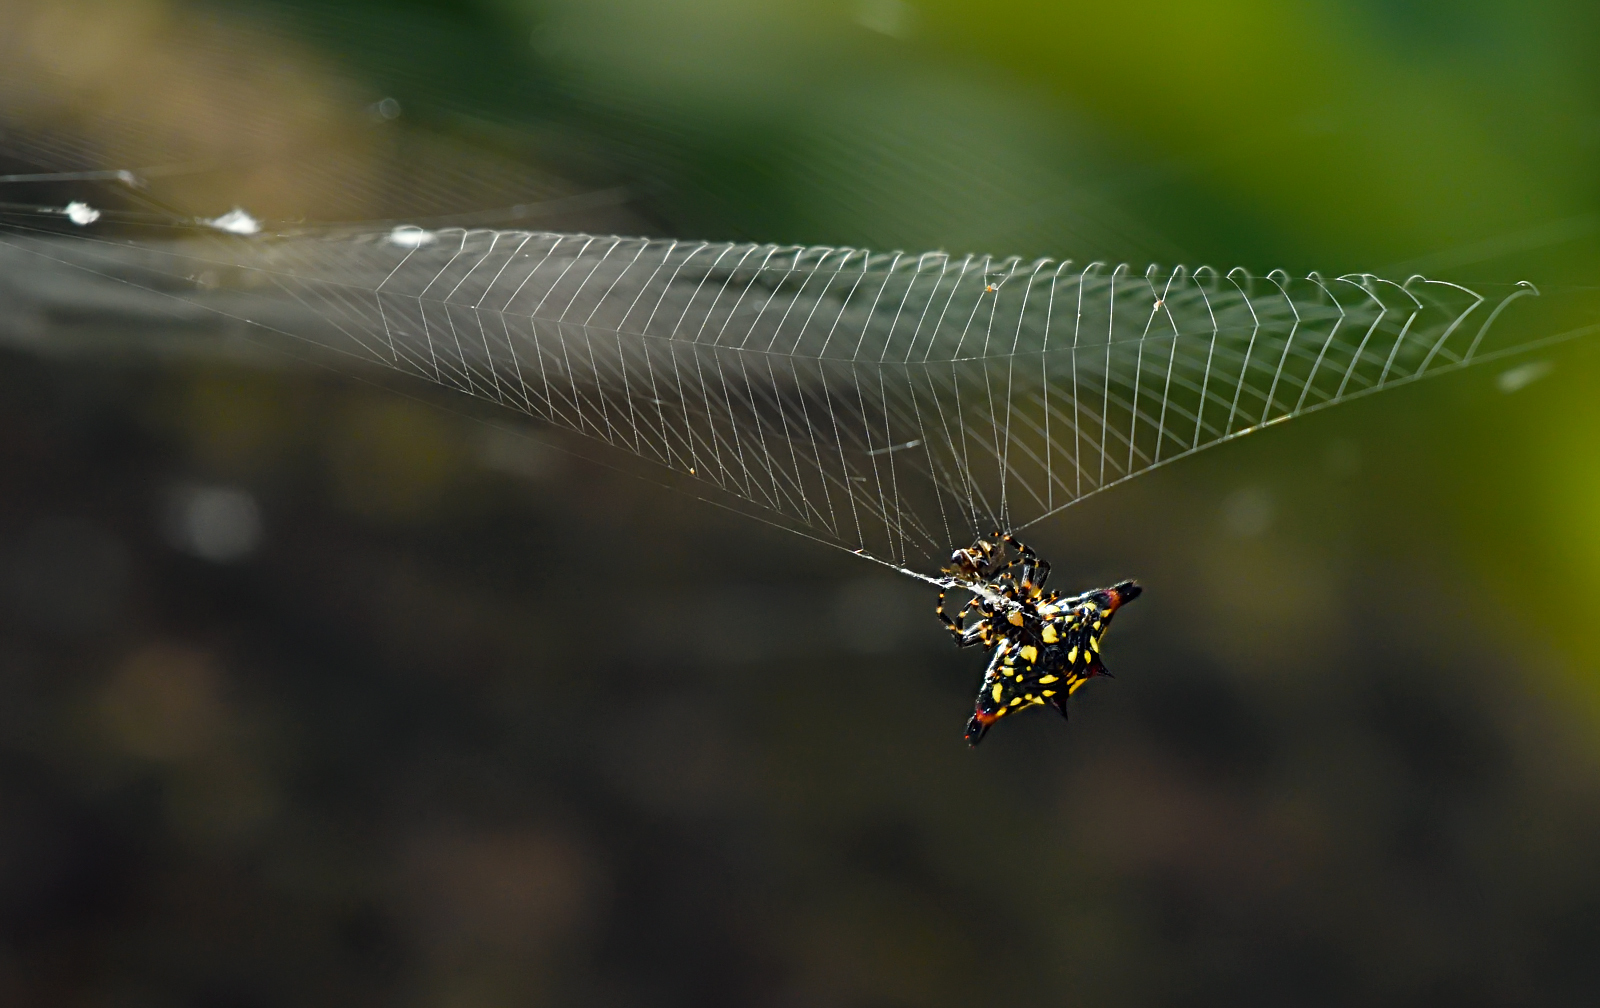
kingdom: Animalia
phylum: Arthropoda
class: Arachnida
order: Araneae
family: Araneidae
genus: Gasteracantha
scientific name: Gasteracantha geminata
